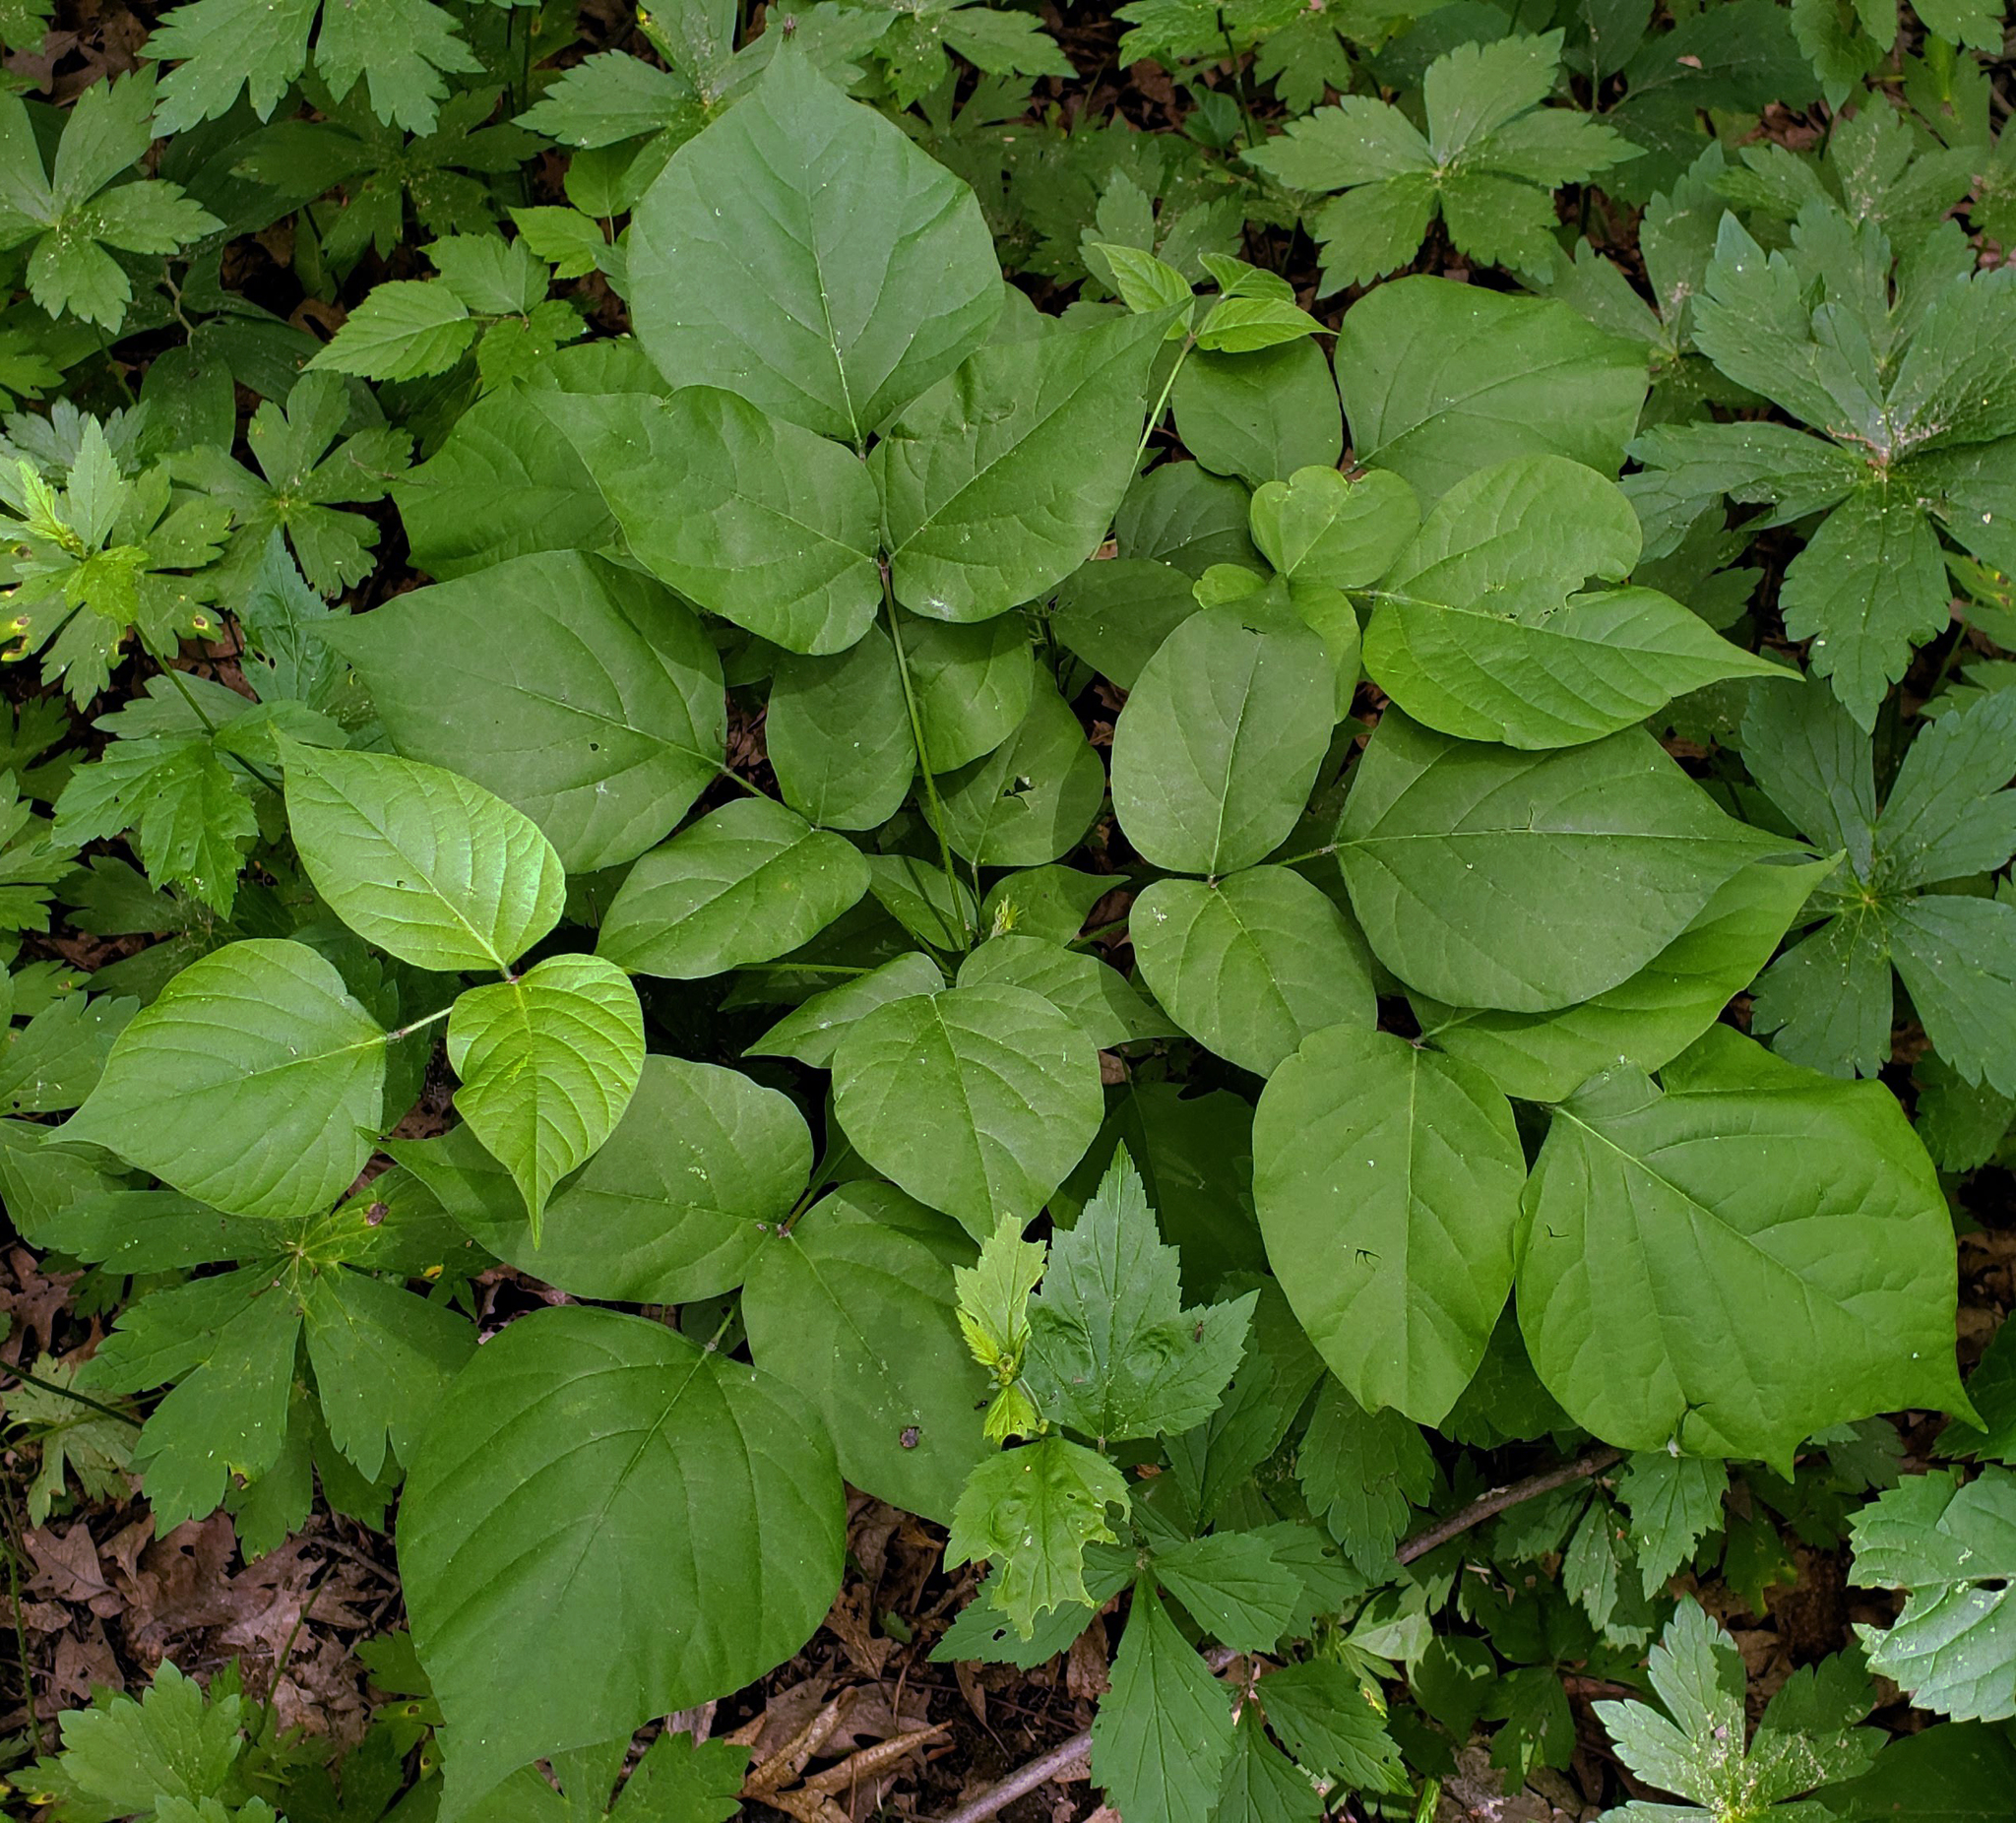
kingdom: Plantae
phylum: Tracheophyta
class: Magnoliopsida
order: Fabales
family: Fabaceae
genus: Hylodesmum
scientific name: Hylodesmum glutinosum
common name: Clustered-leaved tick-trefoil
